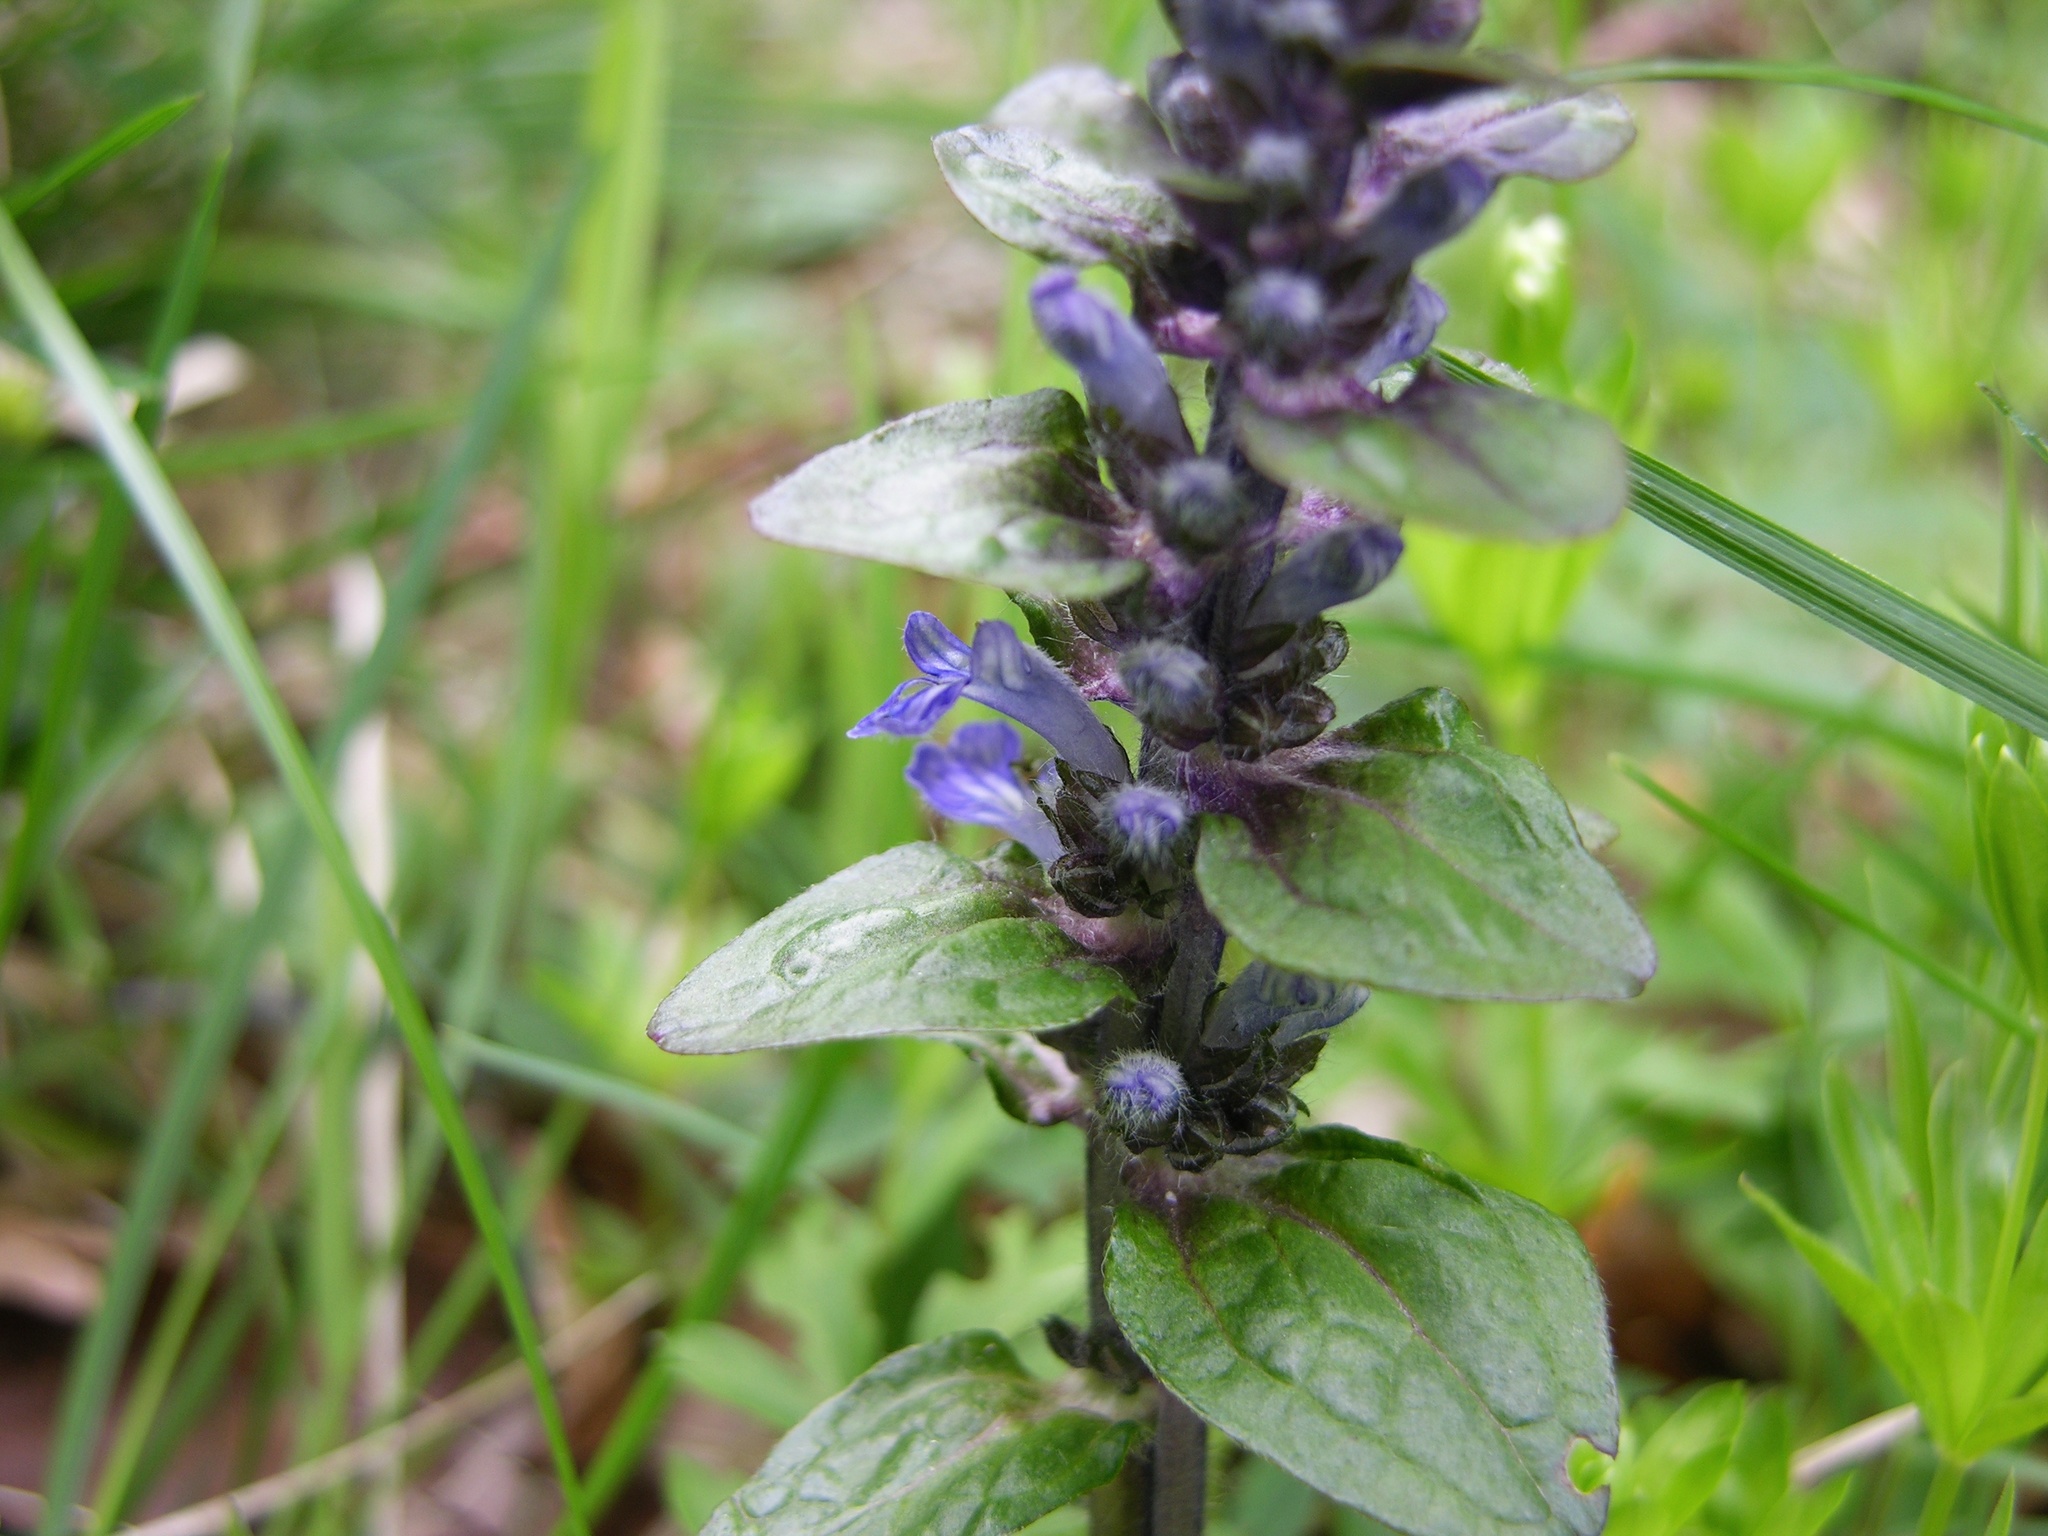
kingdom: Plantae
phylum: Tracheophyta
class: Magnoliopsida
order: Lamiales
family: Lamiaceae
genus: Ajuga
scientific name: Ajuga reptans
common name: Bugle
